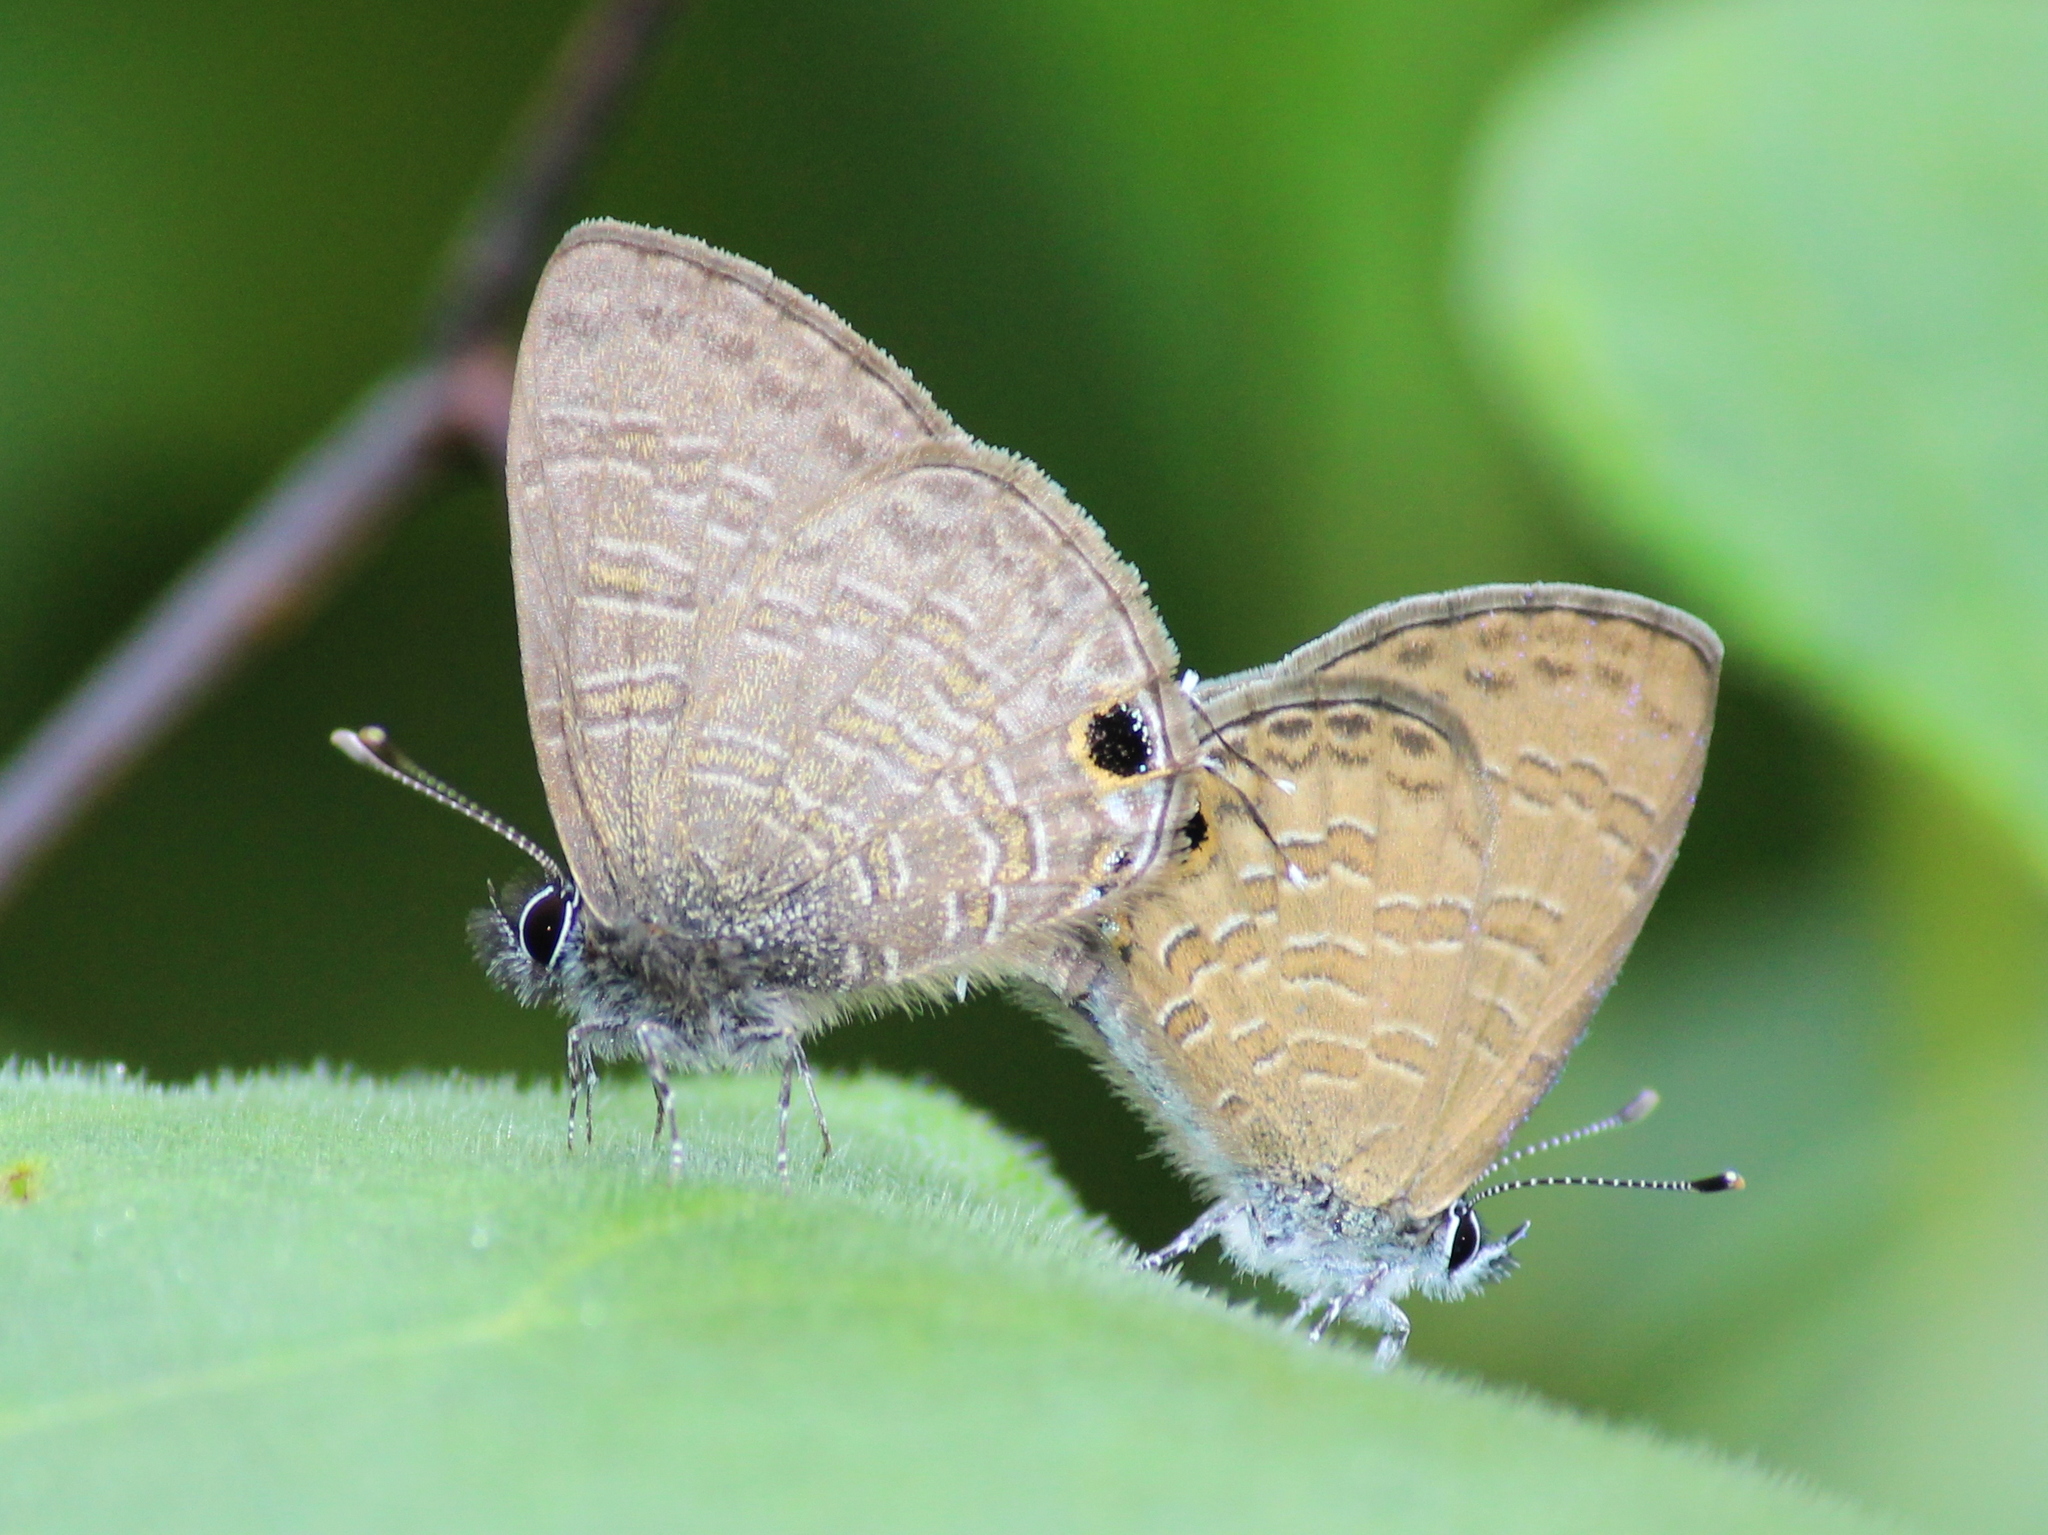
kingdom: Animalia
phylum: Arthropoda
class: Insecta
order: Lepidoptera
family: Lycaenidae
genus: Prosotas
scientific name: Prosotas nora
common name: Common line blue
